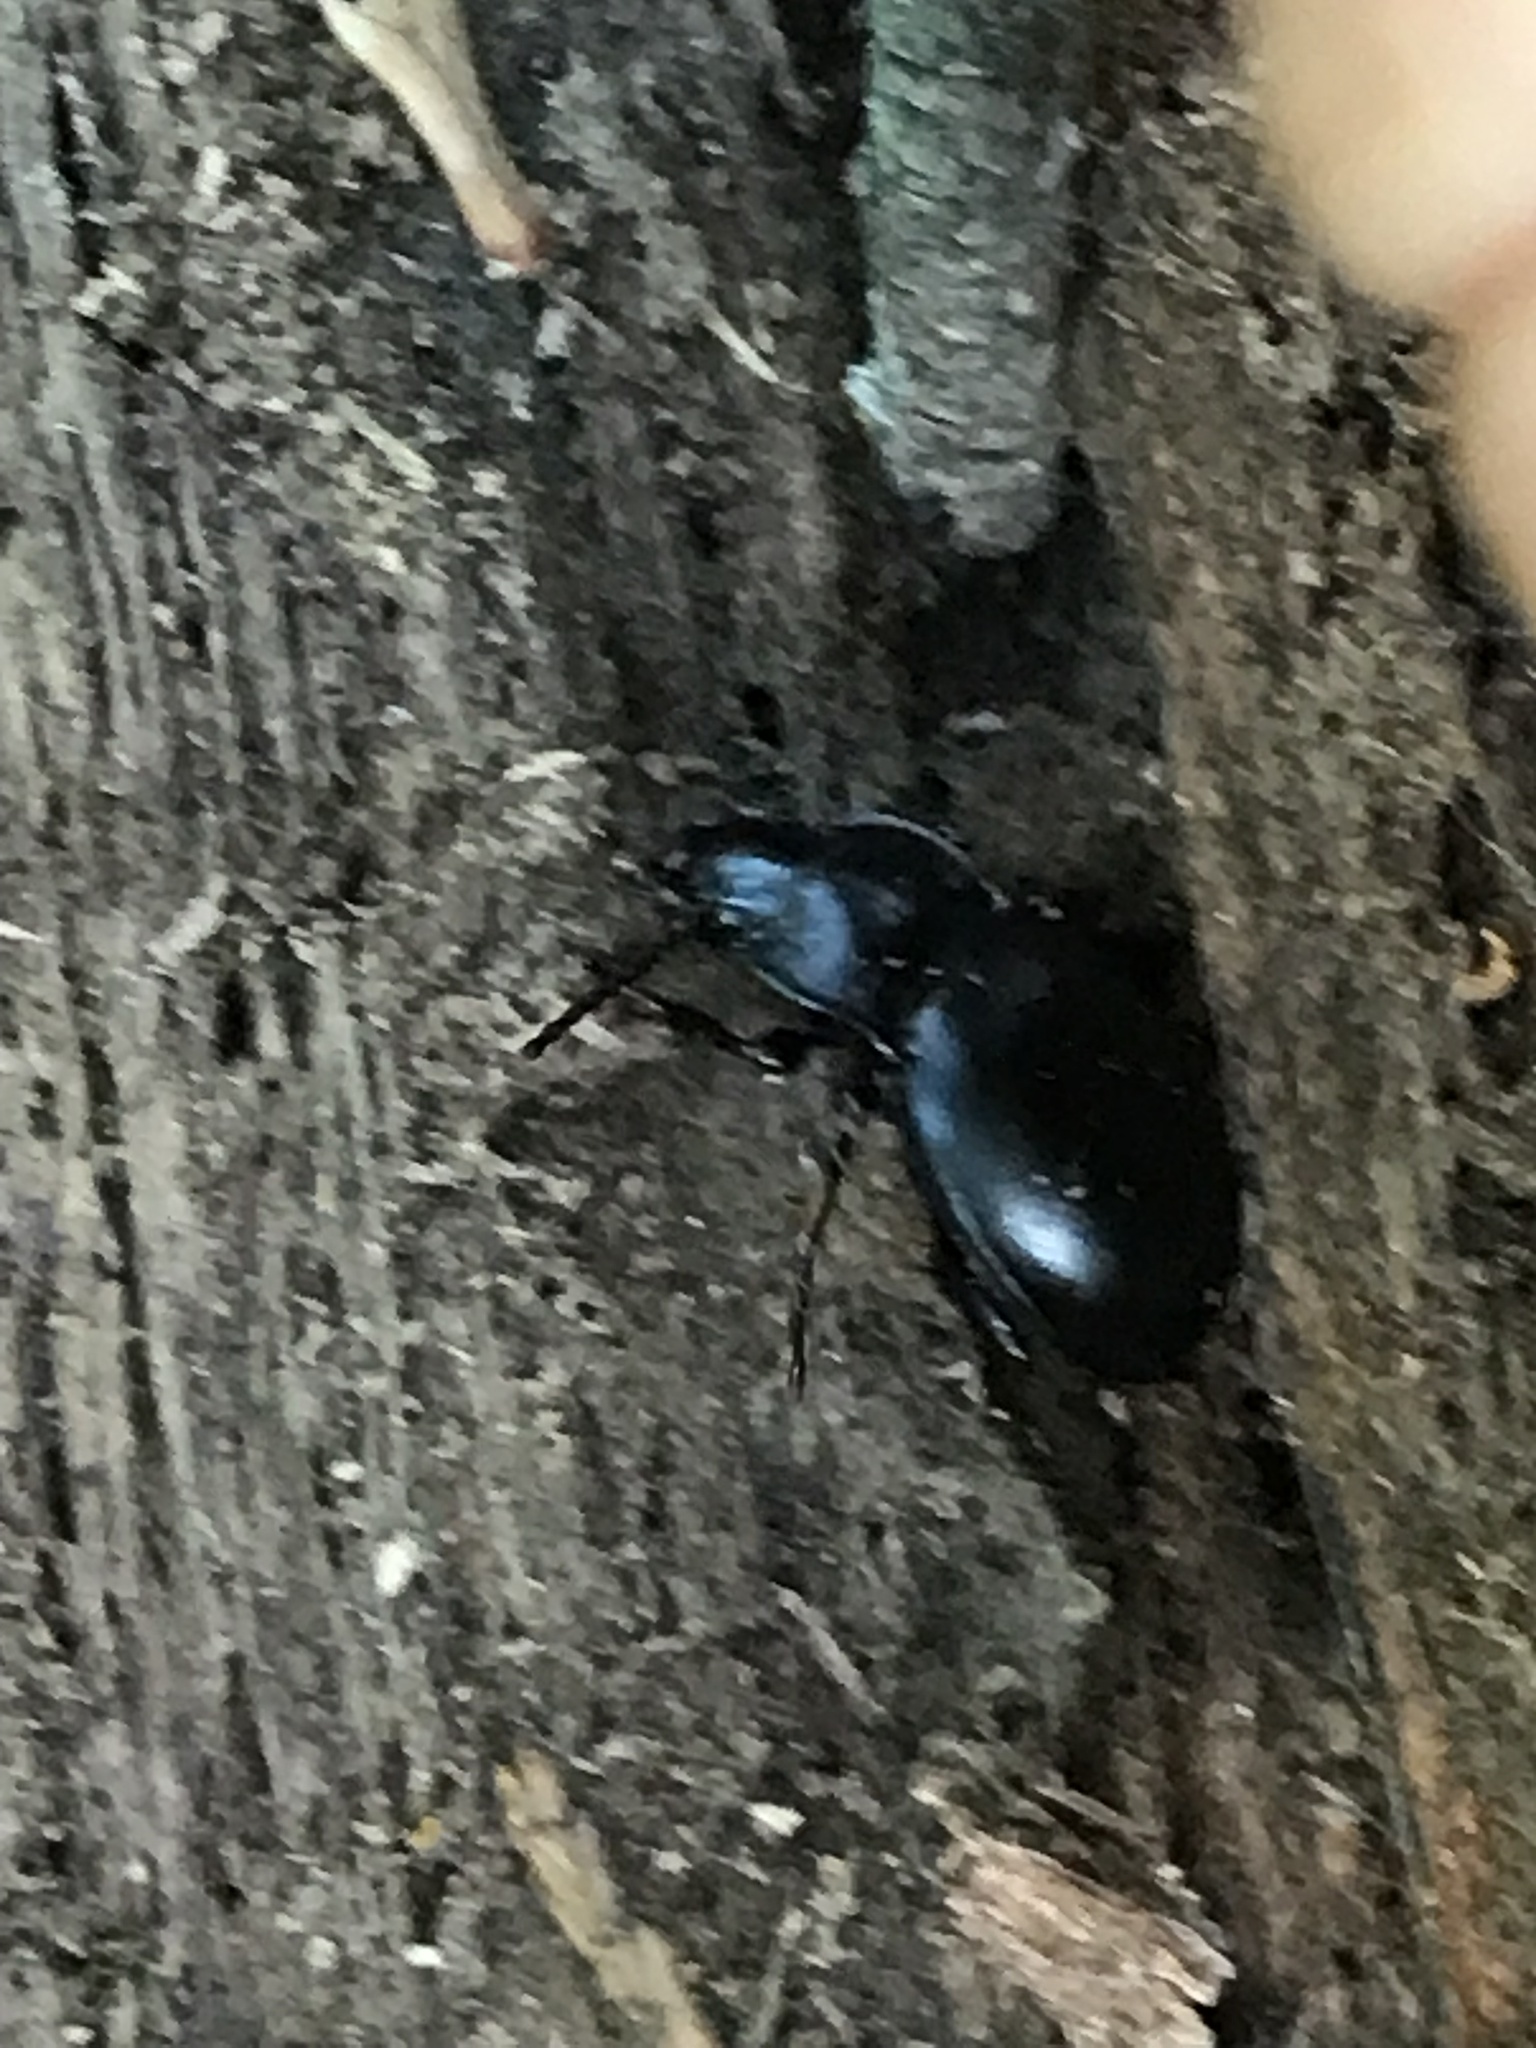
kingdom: Animalia
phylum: Arthropoda
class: Insecta
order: Coleoptera
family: Carabidae
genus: Metrius
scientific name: Metrius contractus
